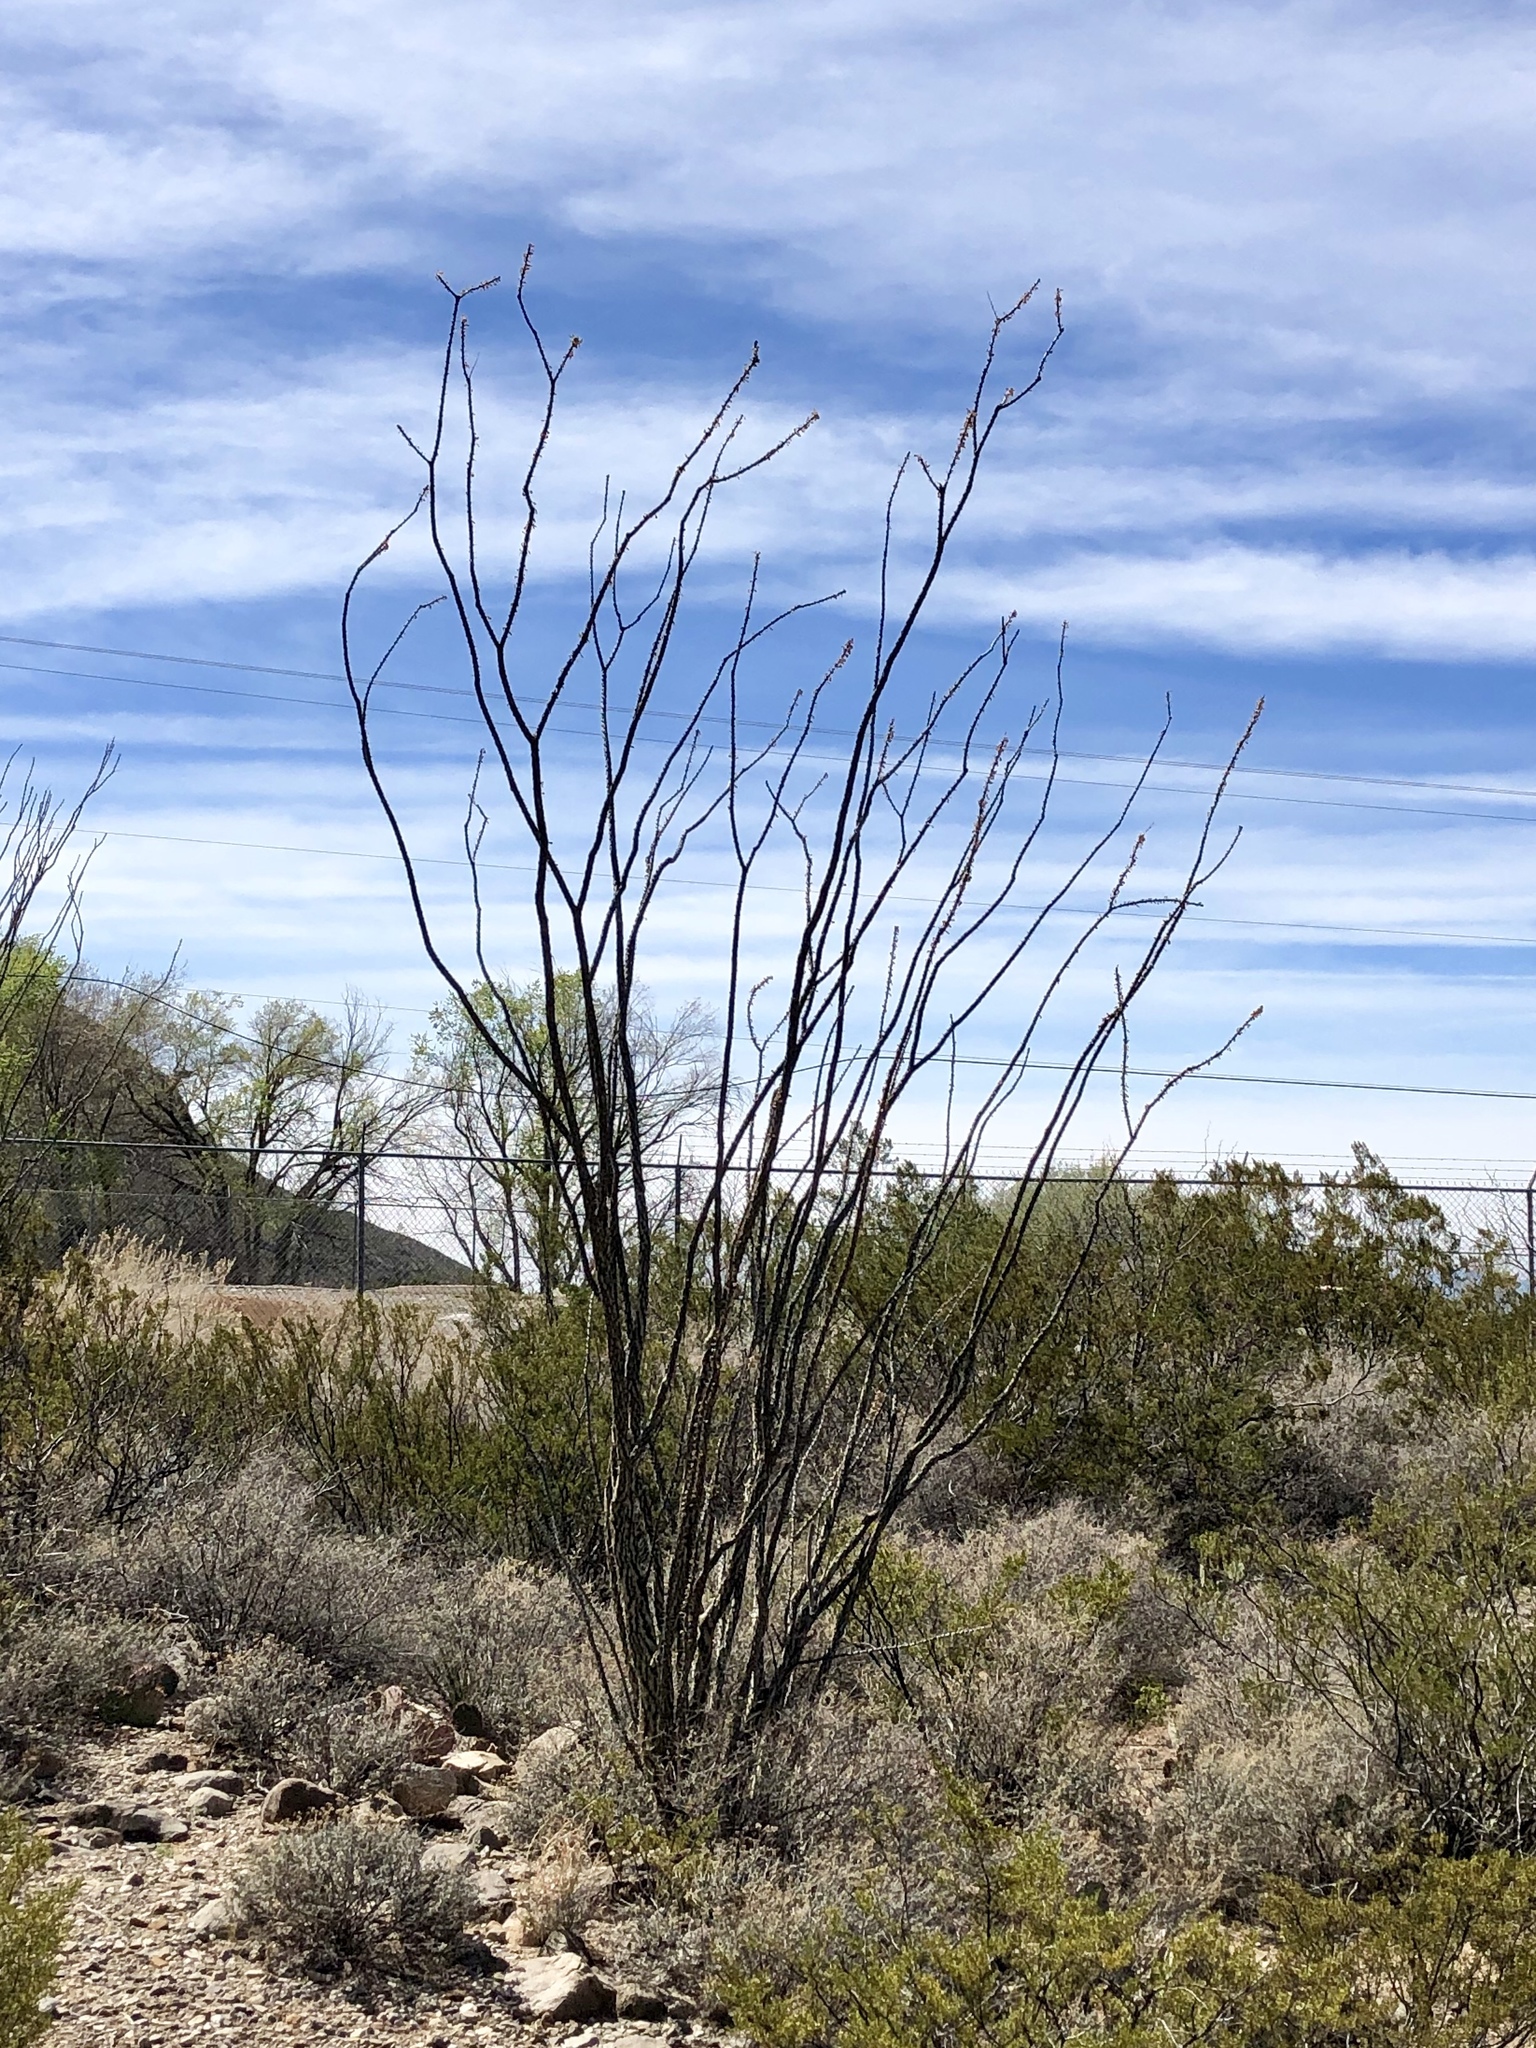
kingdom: Plantae
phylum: Tracheophyta
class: Magnoliopsida
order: Ericales
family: Fouquieriaceae
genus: Fouquieria
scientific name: Fouquieria splendens
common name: Vine-cactus
